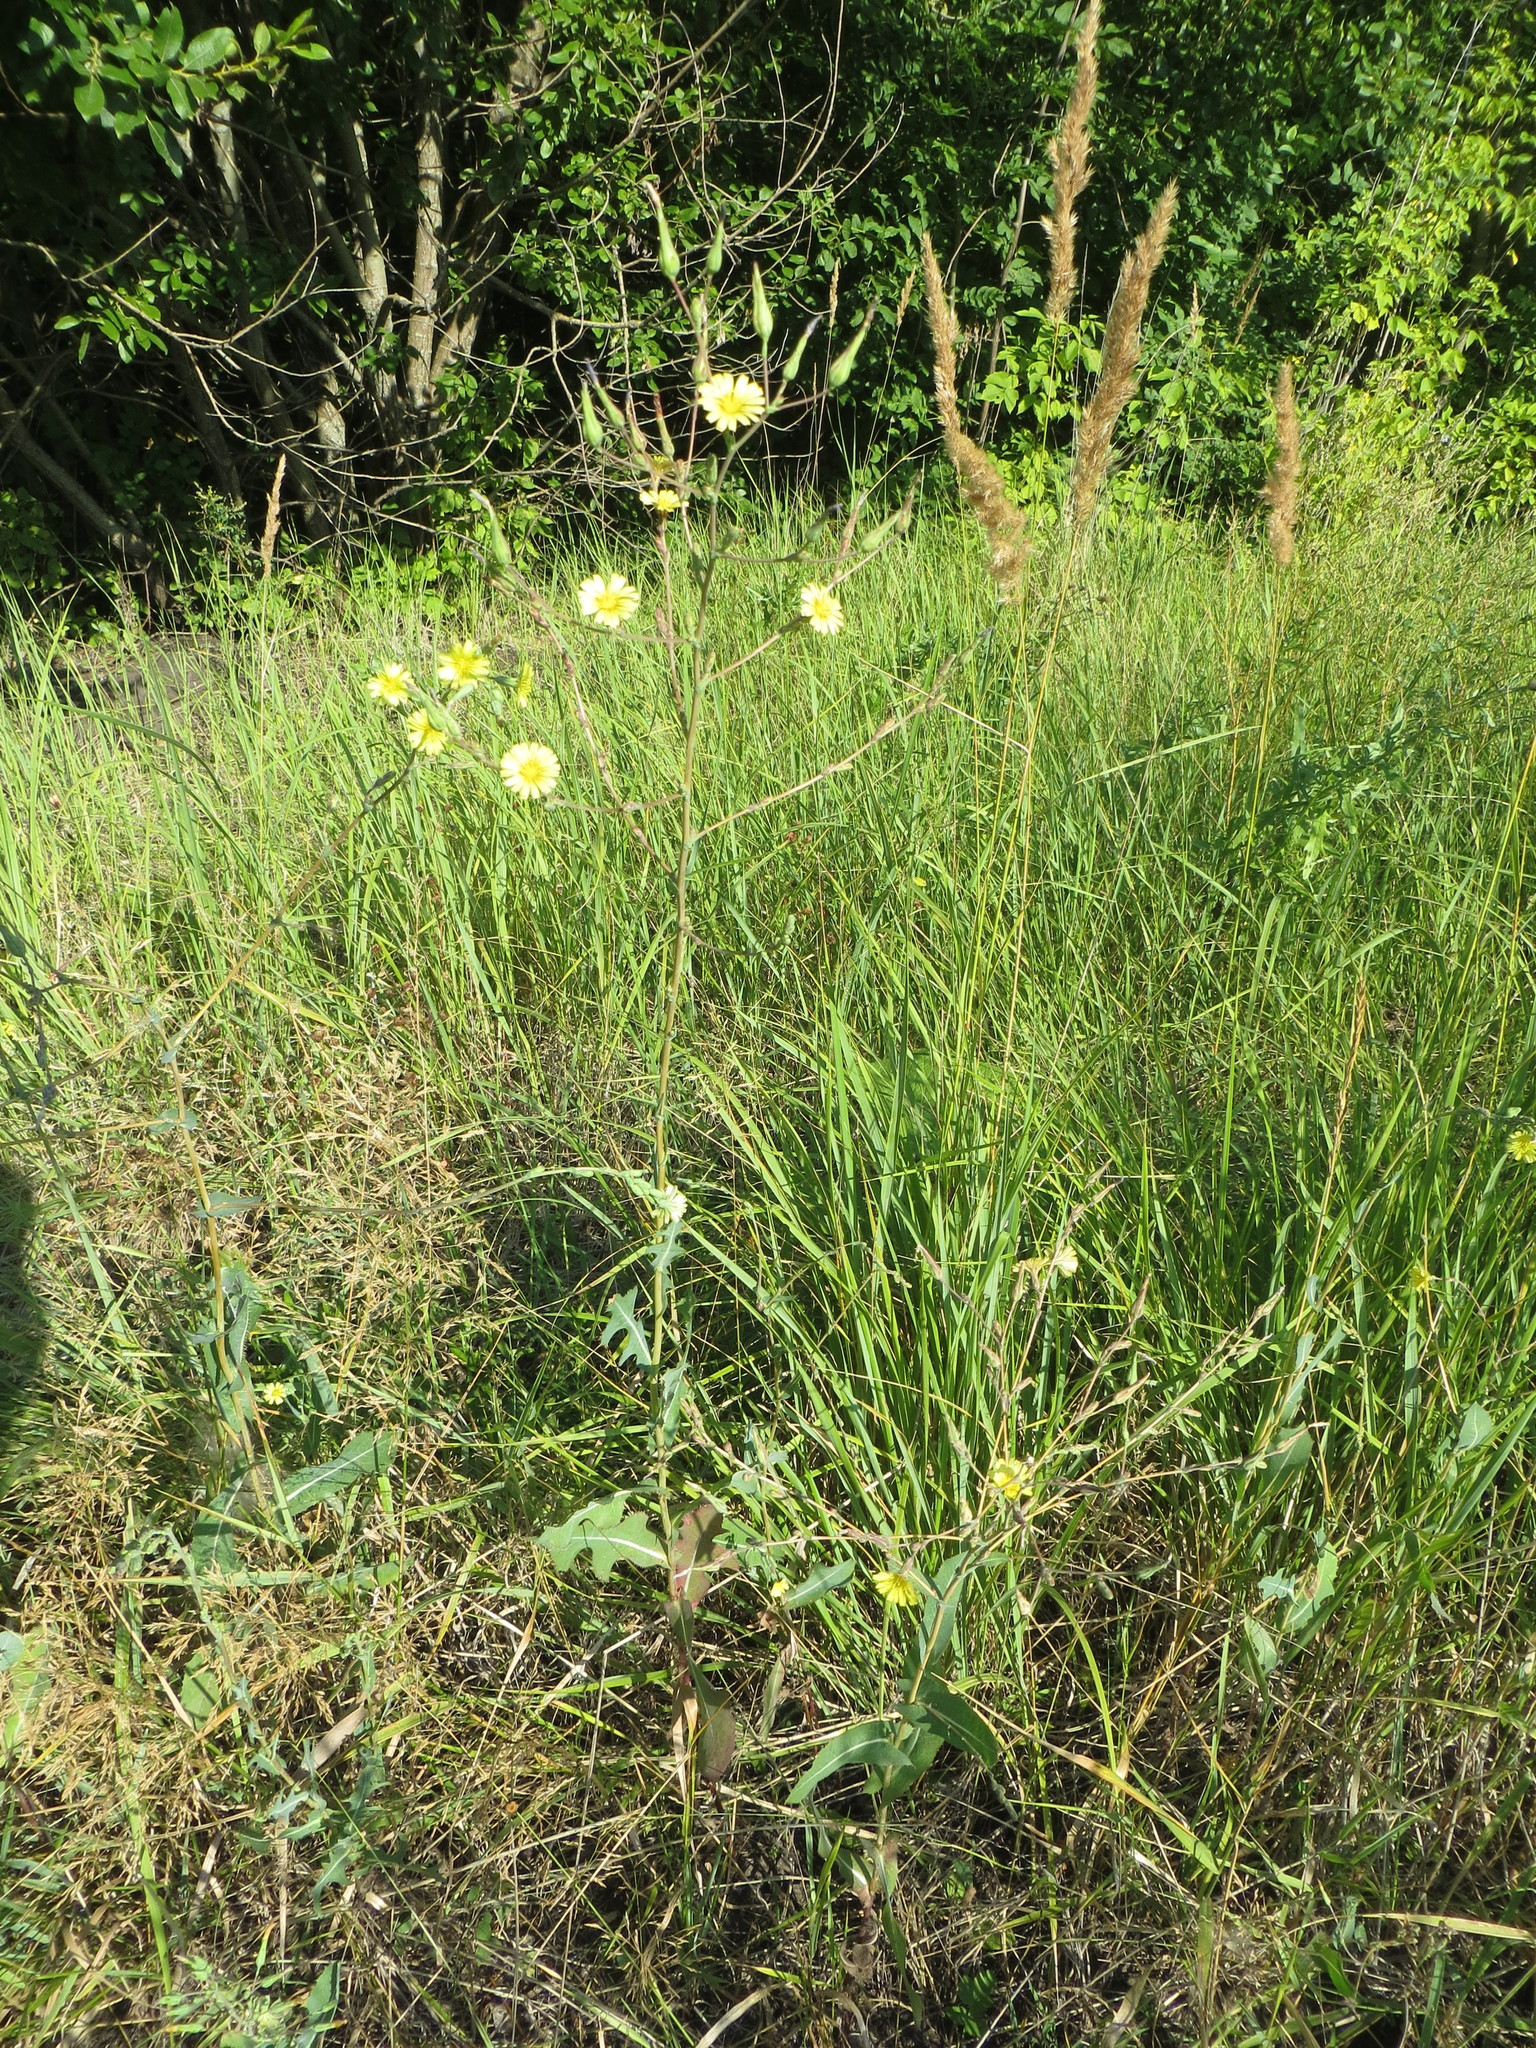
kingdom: Plantae
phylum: Tracheophyta
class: Magnoliopsida
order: Asterales
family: Asteraceae
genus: Lactuca
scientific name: Lactuca serriola
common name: Prickly lettuce
